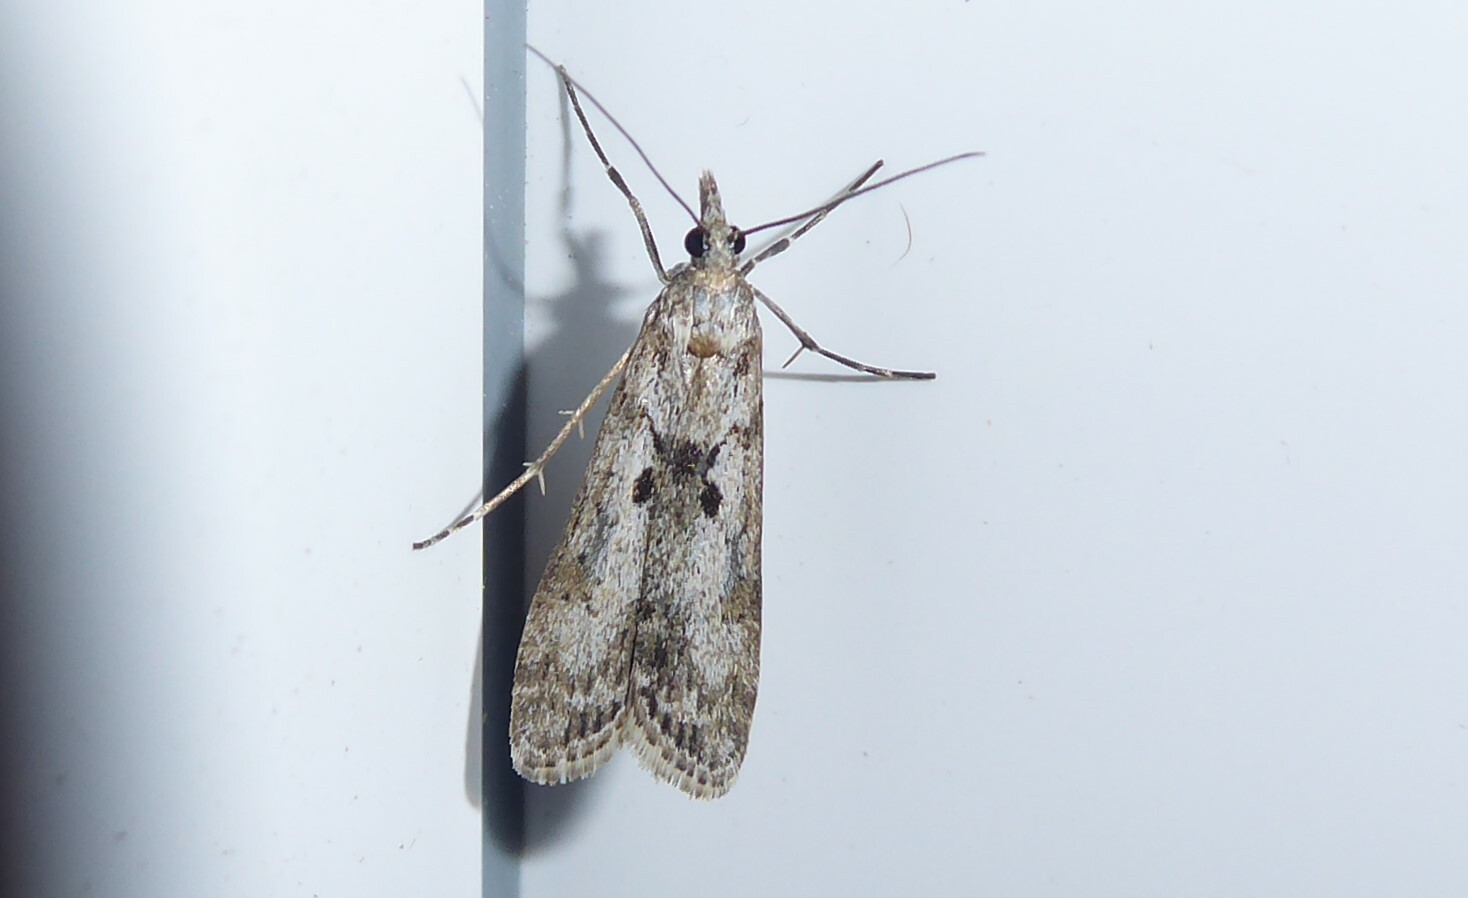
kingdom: Animalia
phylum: Arthropoda
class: Insecta
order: Lepidoptera
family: Crambidae
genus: Eudonia
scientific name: Eudonia leptalea
